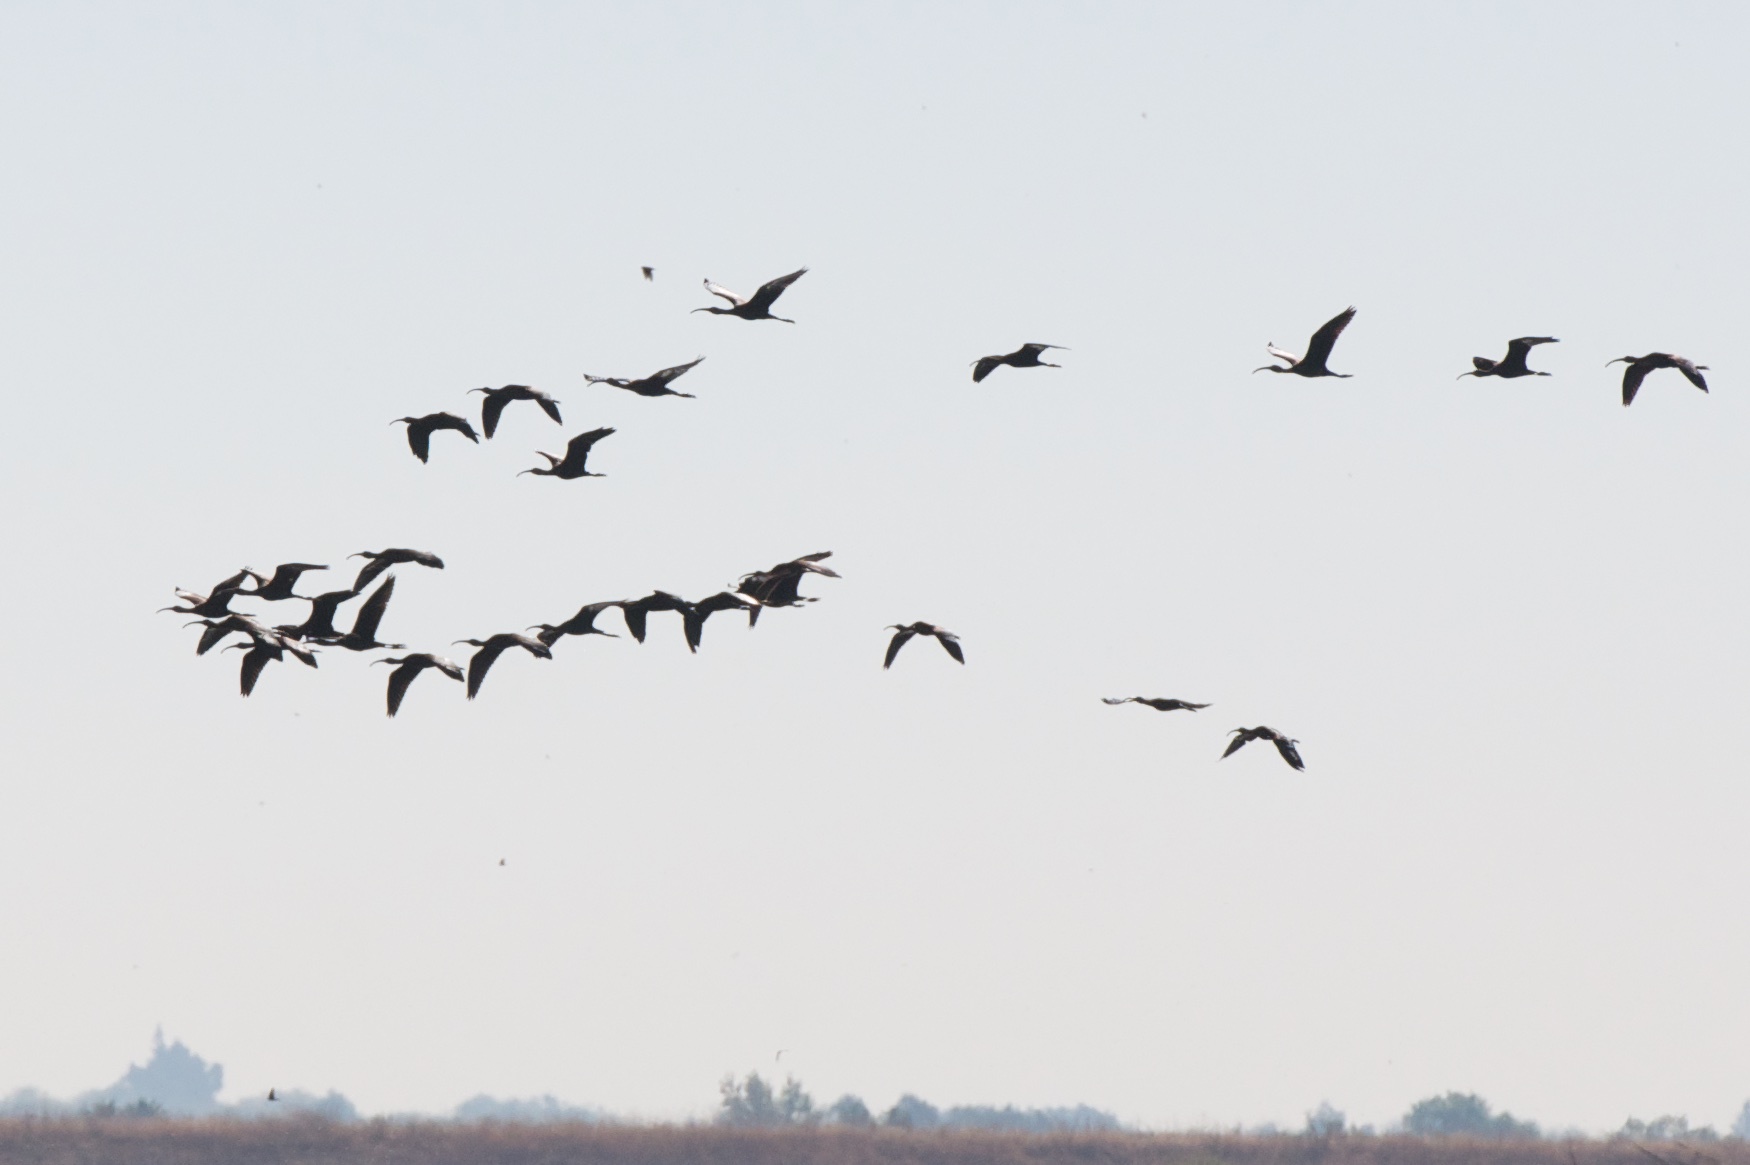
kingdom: Animalia
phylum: Chordata
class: Aves
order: Pelecaniformes
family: Threskiornithidae
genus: Plegadis
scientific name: Plegadis chihi
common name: White-faced ibis
